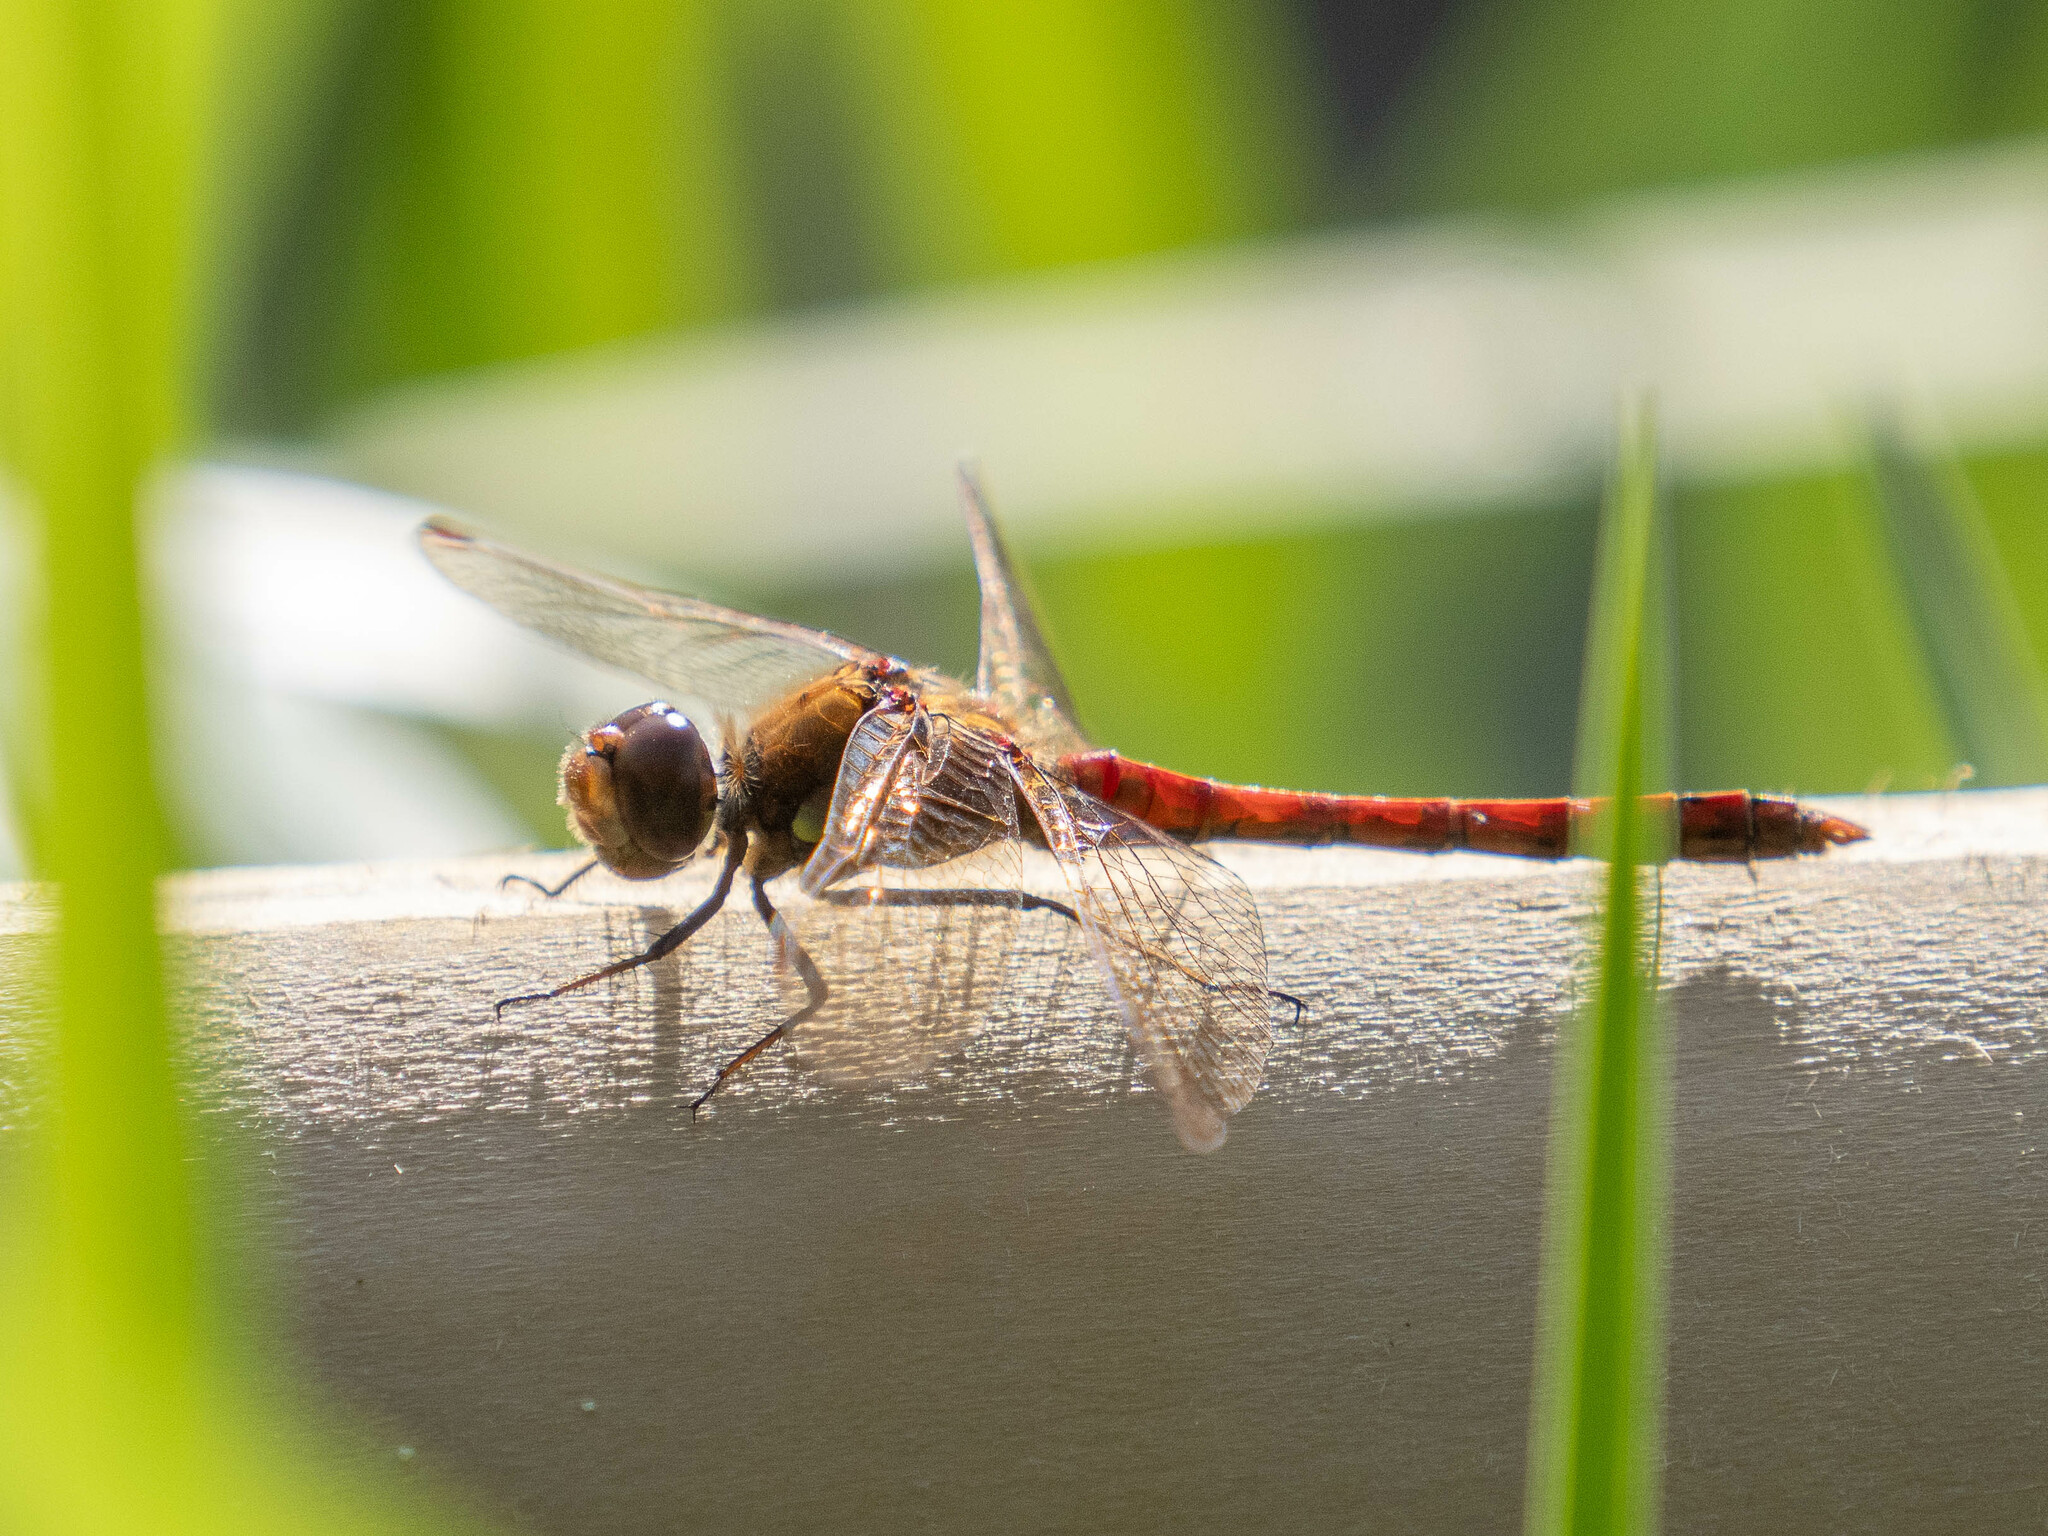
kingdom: Animalia
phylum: Arthropoda
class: Insecta
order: Odonata
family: Libellulidae
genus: Sympetrum
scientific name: Sympetrum striolatum
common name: Common darter
